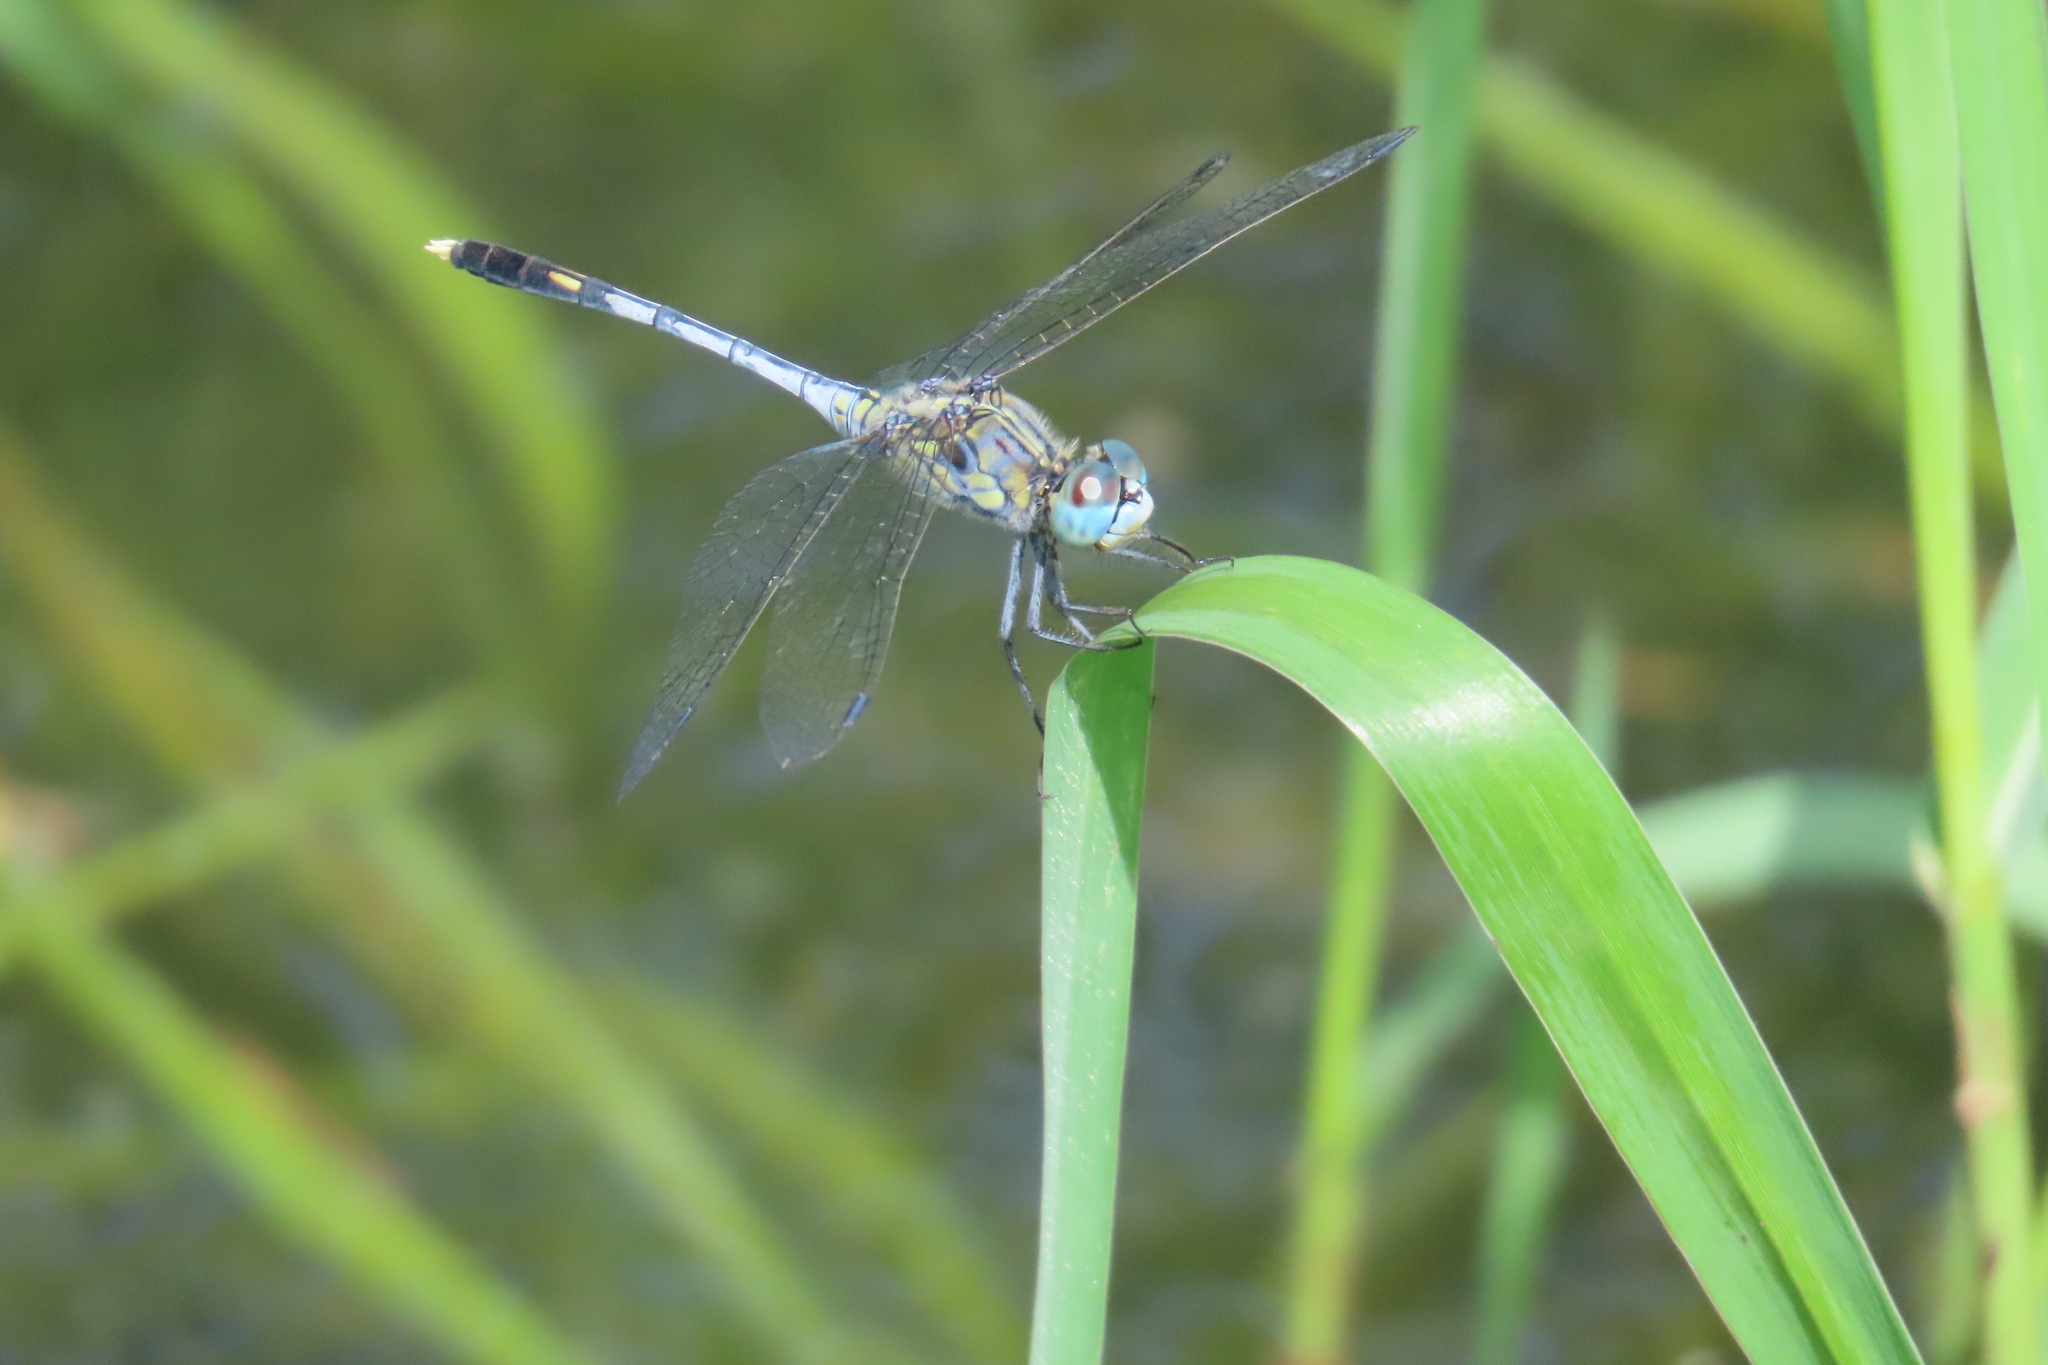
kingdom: Animalia
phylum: Arthropoda
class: Insecta
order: Odonata
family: Libellulidae
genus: Diplacodes
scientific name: Diplacodes trivialis
